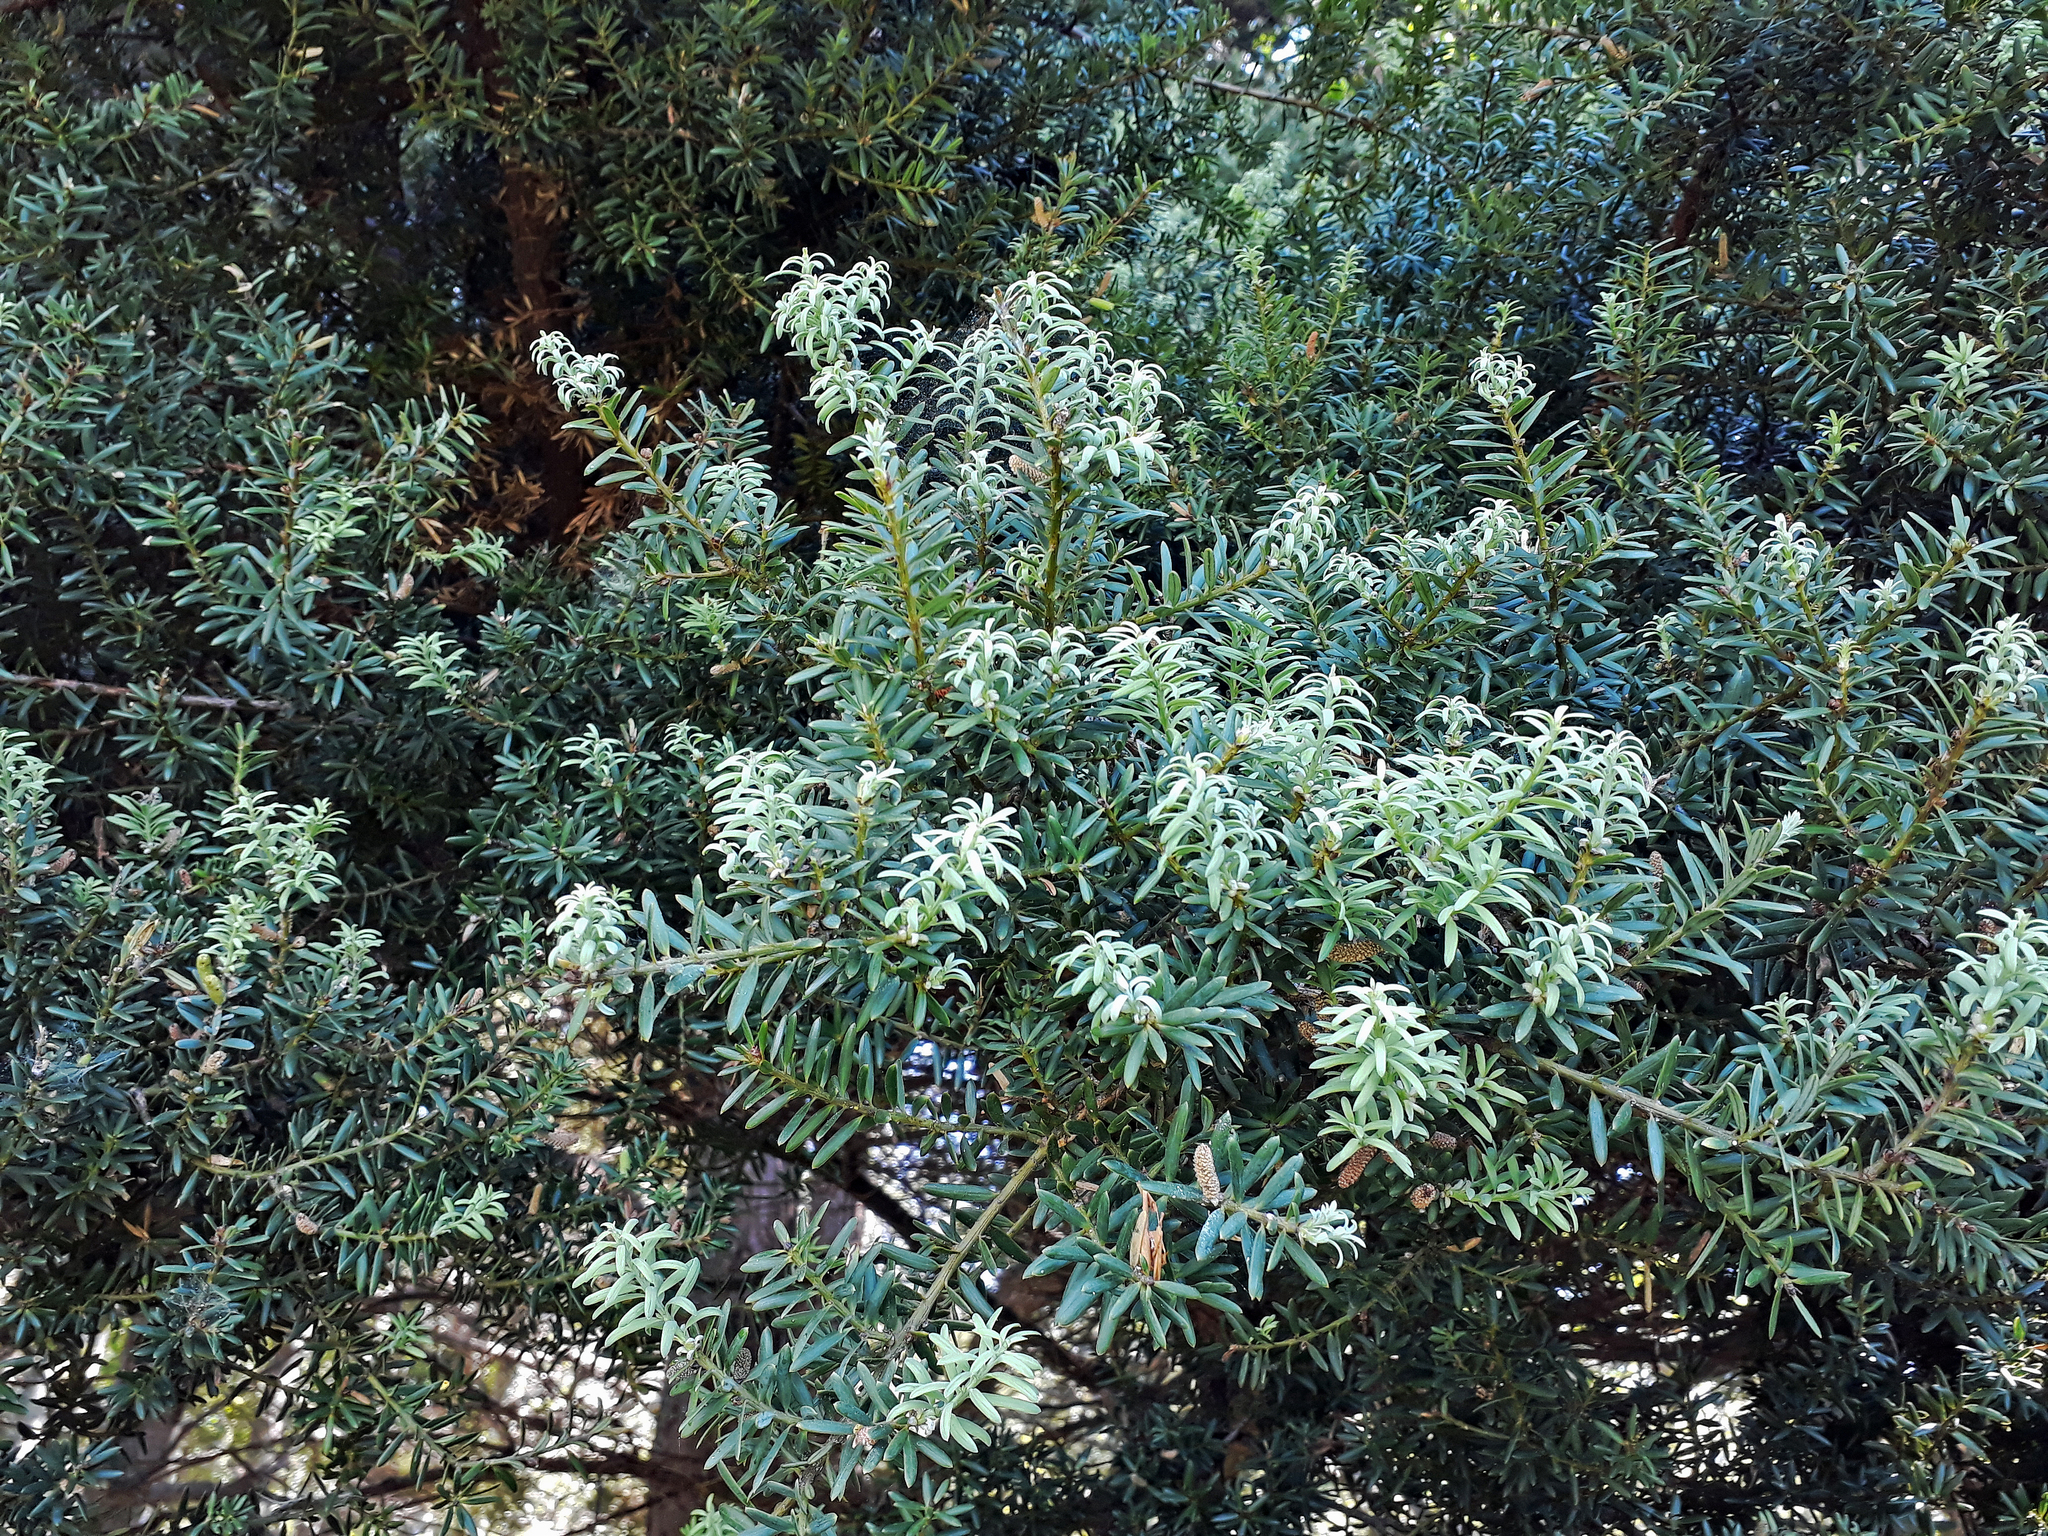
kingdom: Plantae
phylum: Tracheophyta
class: Pinopsida
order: Pinales
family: Podocarpaceae
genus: Podocarpus
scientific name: Podocarpus totara
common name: Totara
